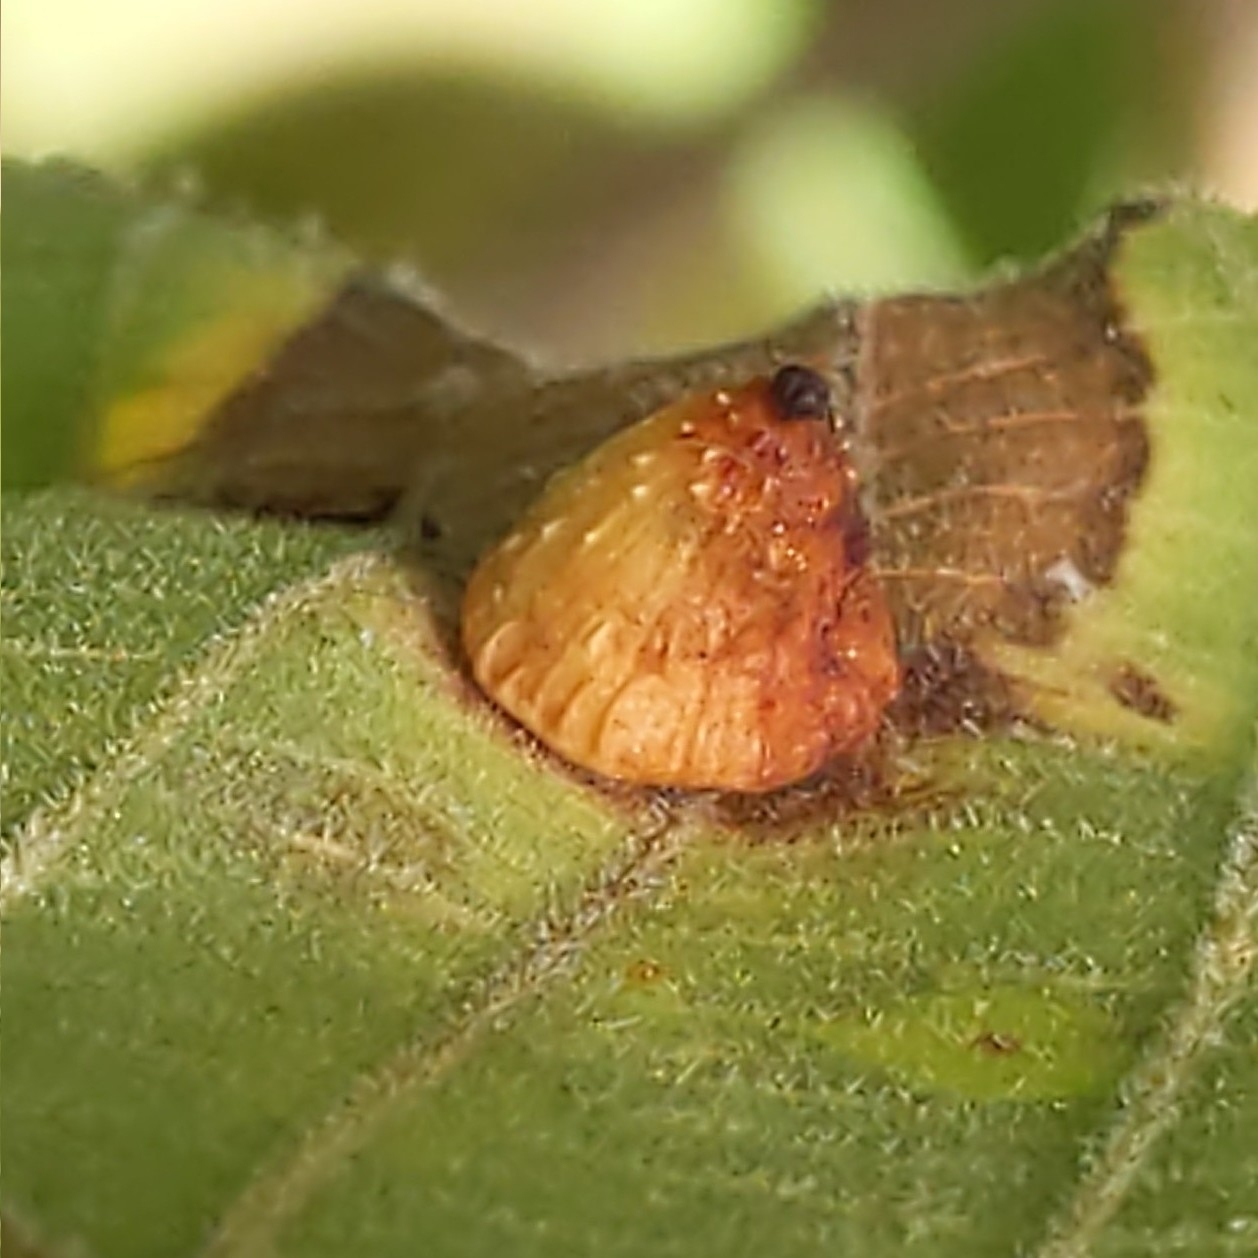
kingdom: Animalia
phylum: Arthropoda
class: Insecta
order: Diptera
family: Cecidomyiidae
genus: Caryomyia
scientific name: Caryomyia lenta
